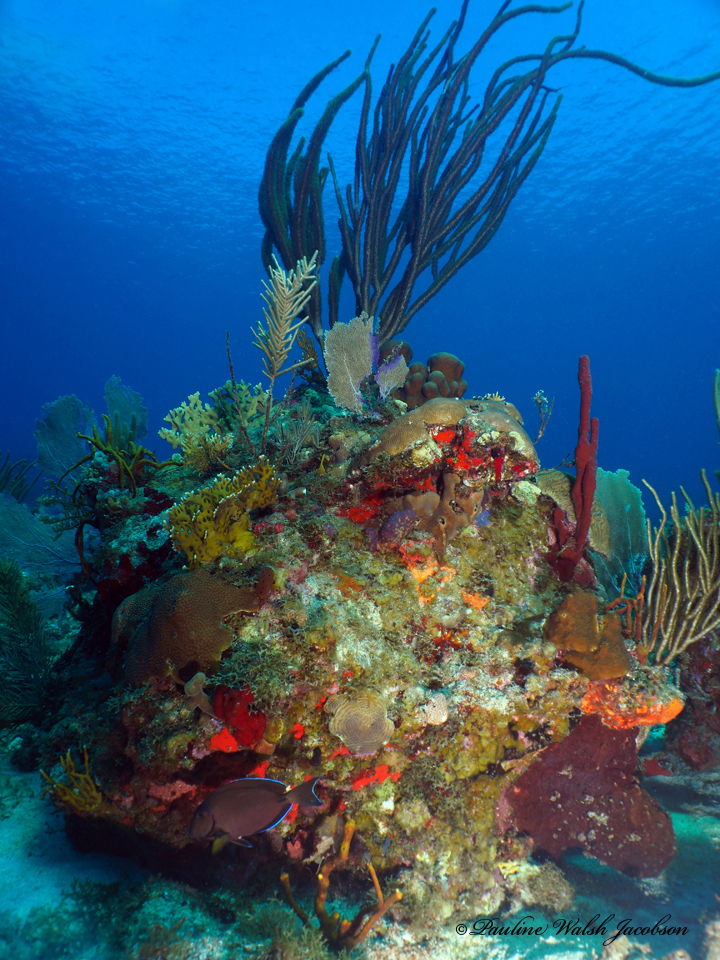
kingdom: Animalia
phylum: Chordata
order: Perciformes
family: Acanthuridae
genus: Acanthurus
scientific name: Acanthurus bahianus
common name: Ocean surgeon
